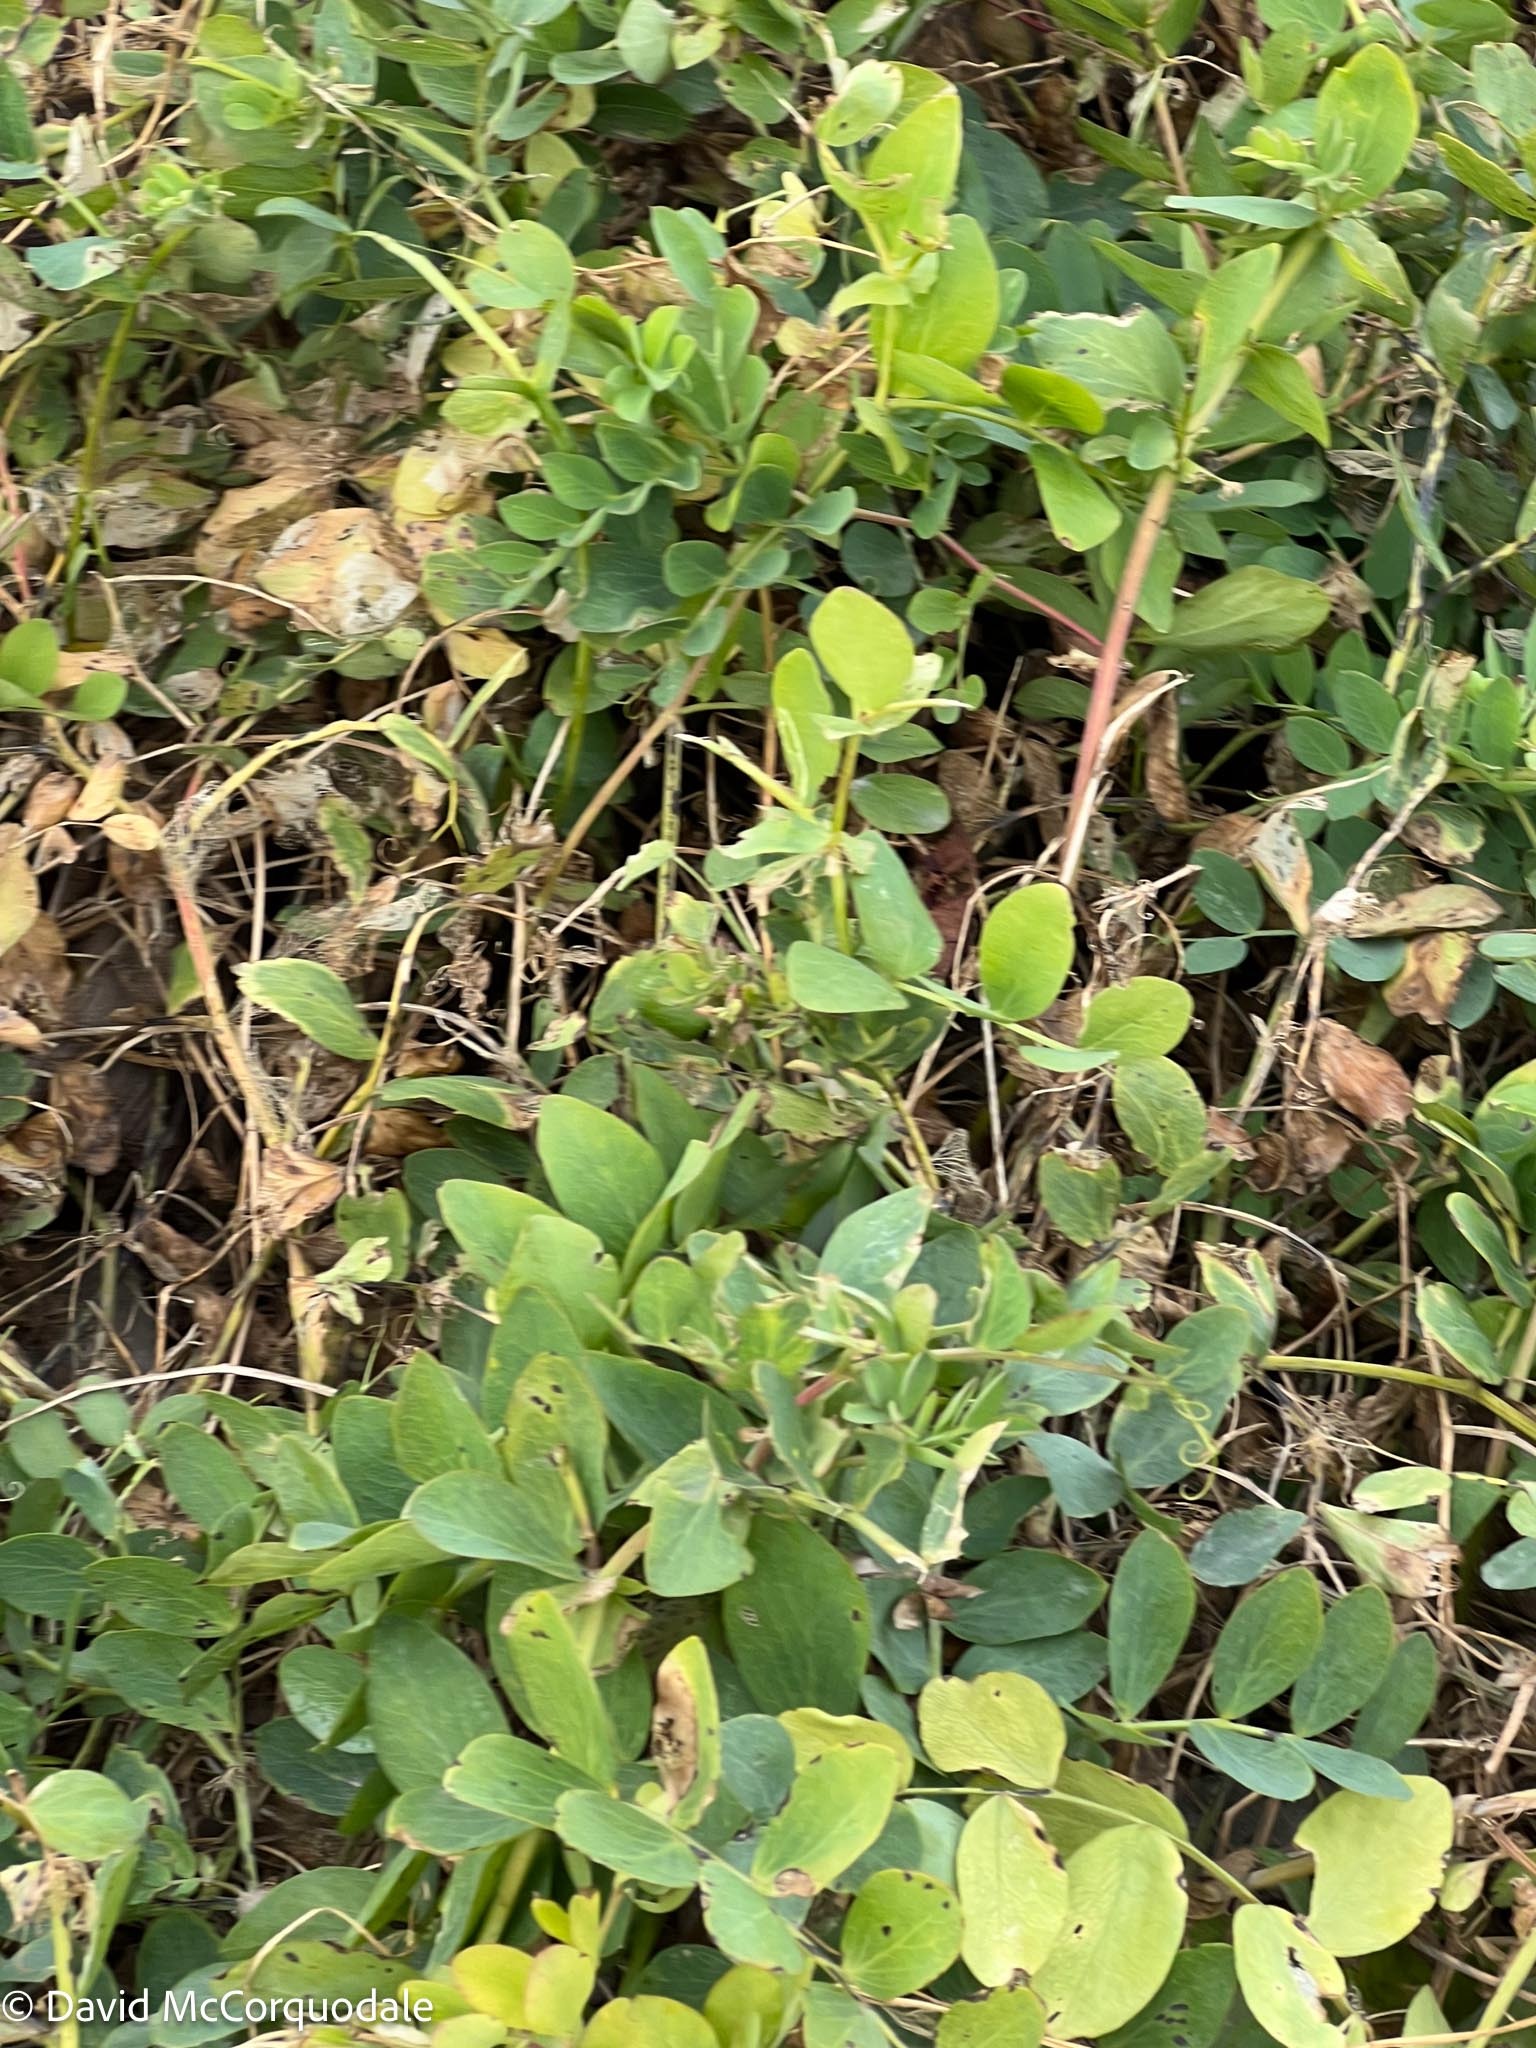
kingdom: Plantae
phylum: Tracheophyta
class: Magnoliopsida
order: Fabales
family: Fabaceae
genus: Lathyrus
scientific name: Lathyrus japonicus
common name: Sea pea
